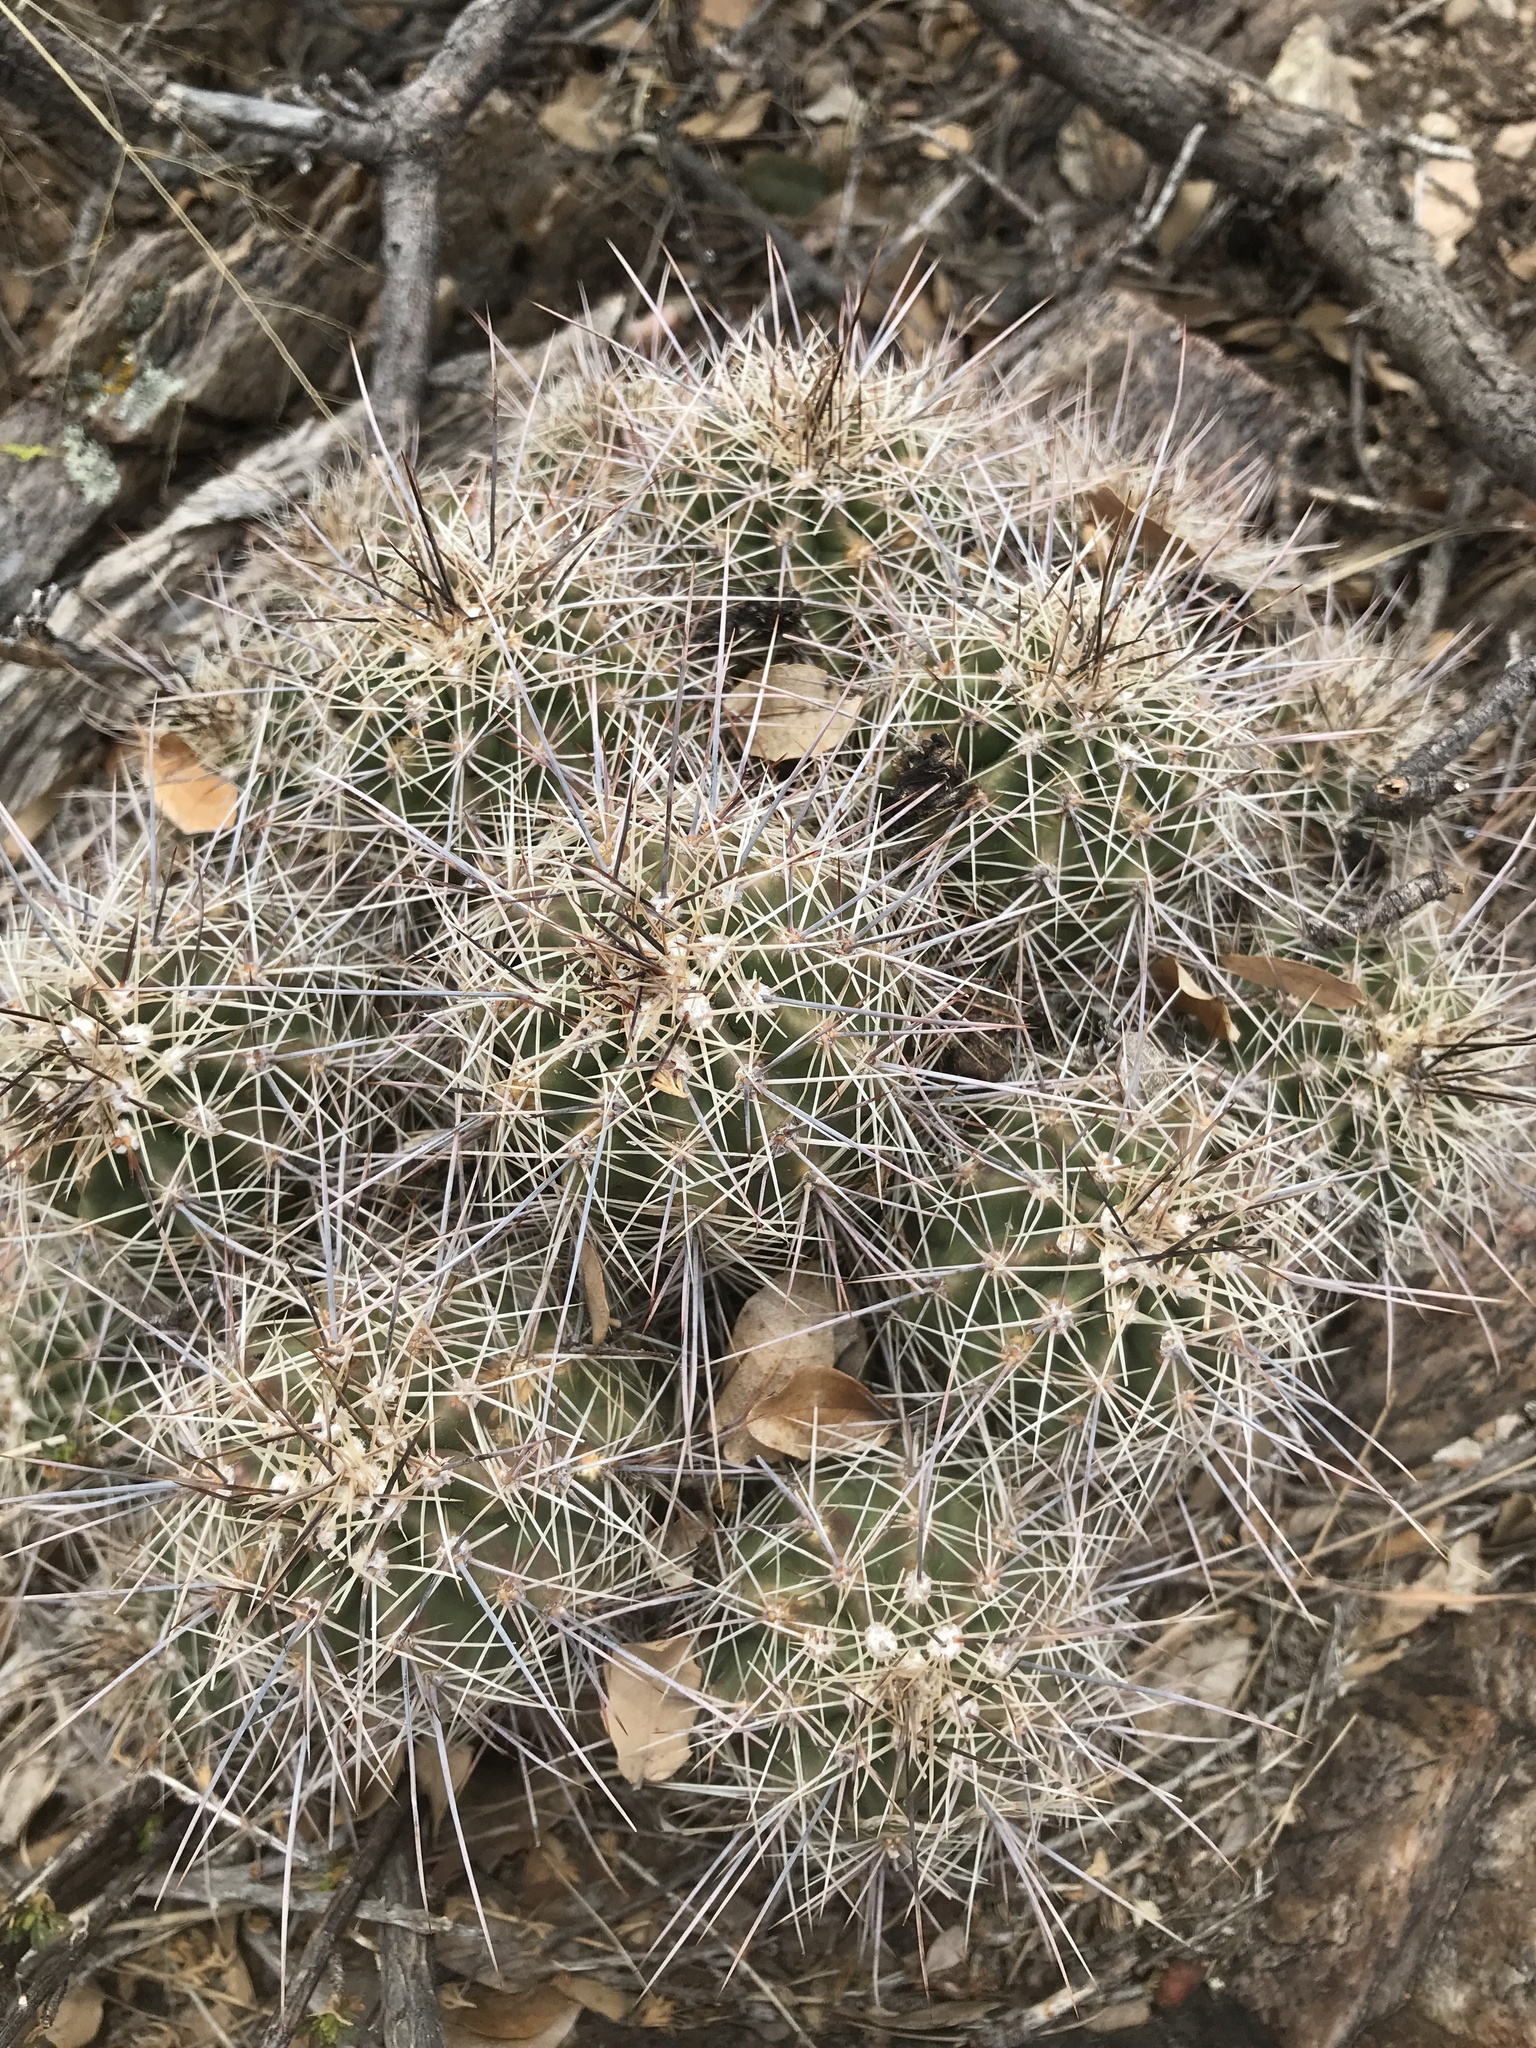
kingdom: Plantae
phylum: Tracheophyta
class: Magnoliopsida
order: Caryophyllales
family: Cactaceae
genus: Echinocereus
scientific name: Echinocereus coccineus
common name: Scarlet hedgehog cactus
